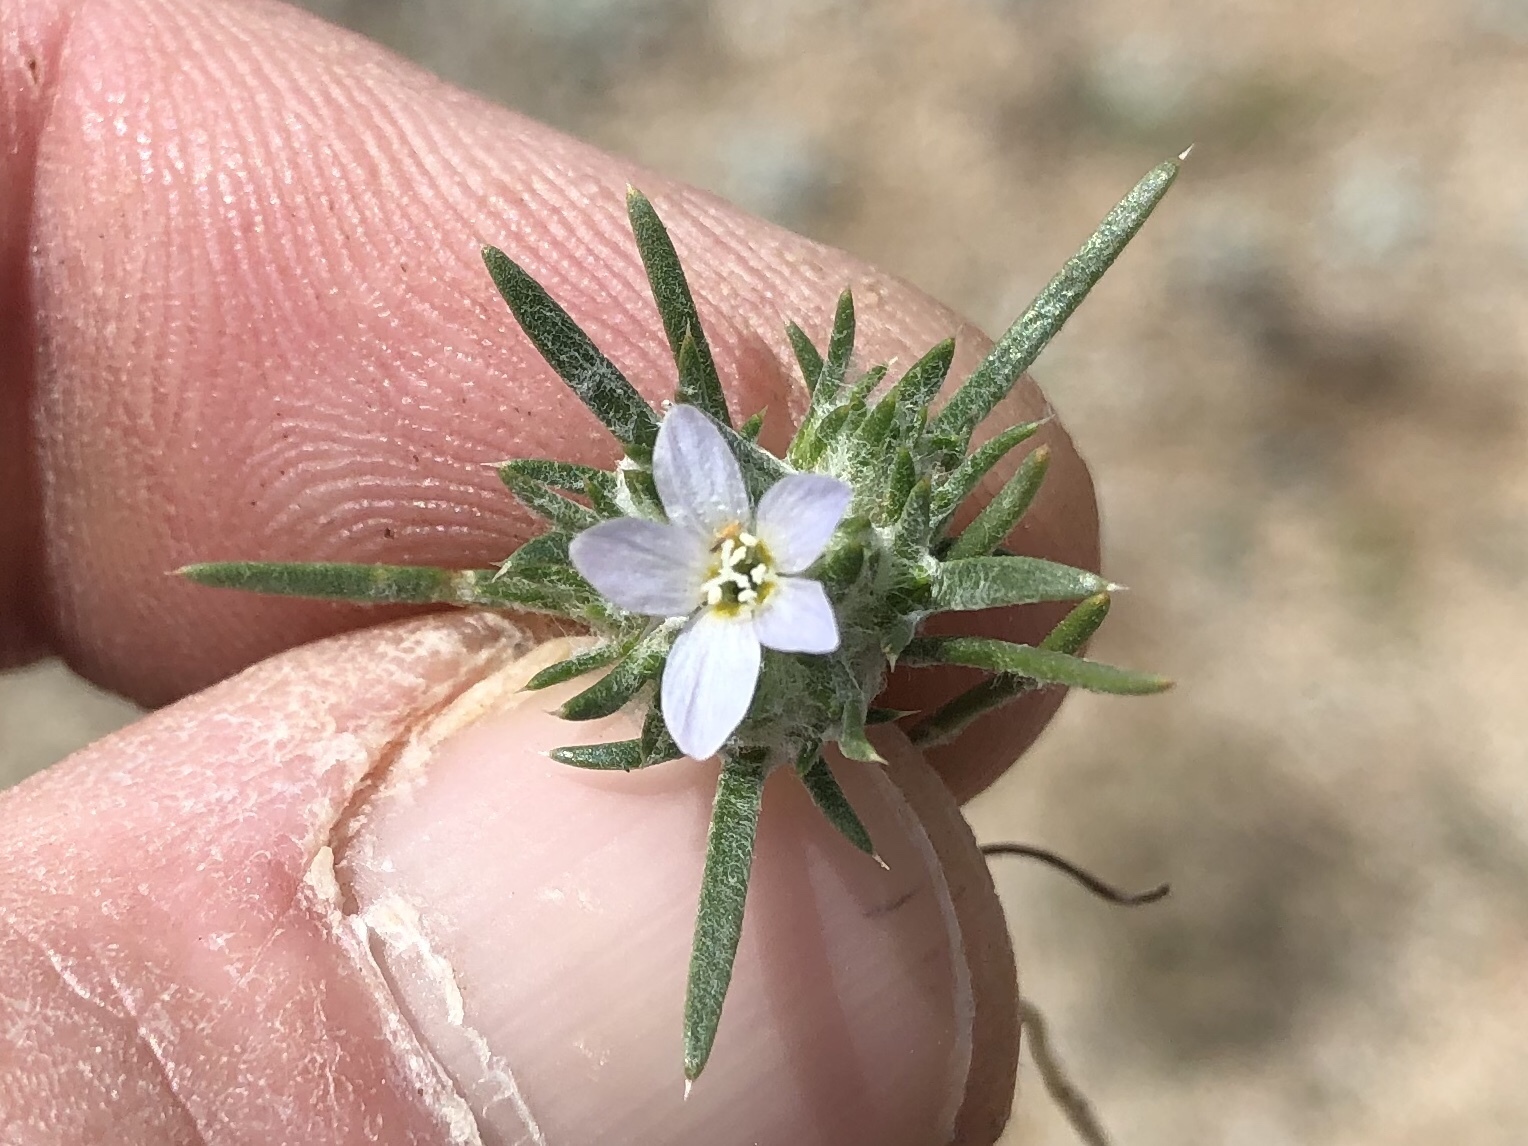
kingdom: Plantae
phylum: Tracheophyta
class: Magnoliopsida
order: Ericales
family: Polemoniaceae
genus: Eriastrum
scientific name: Eriastrum diffusum
